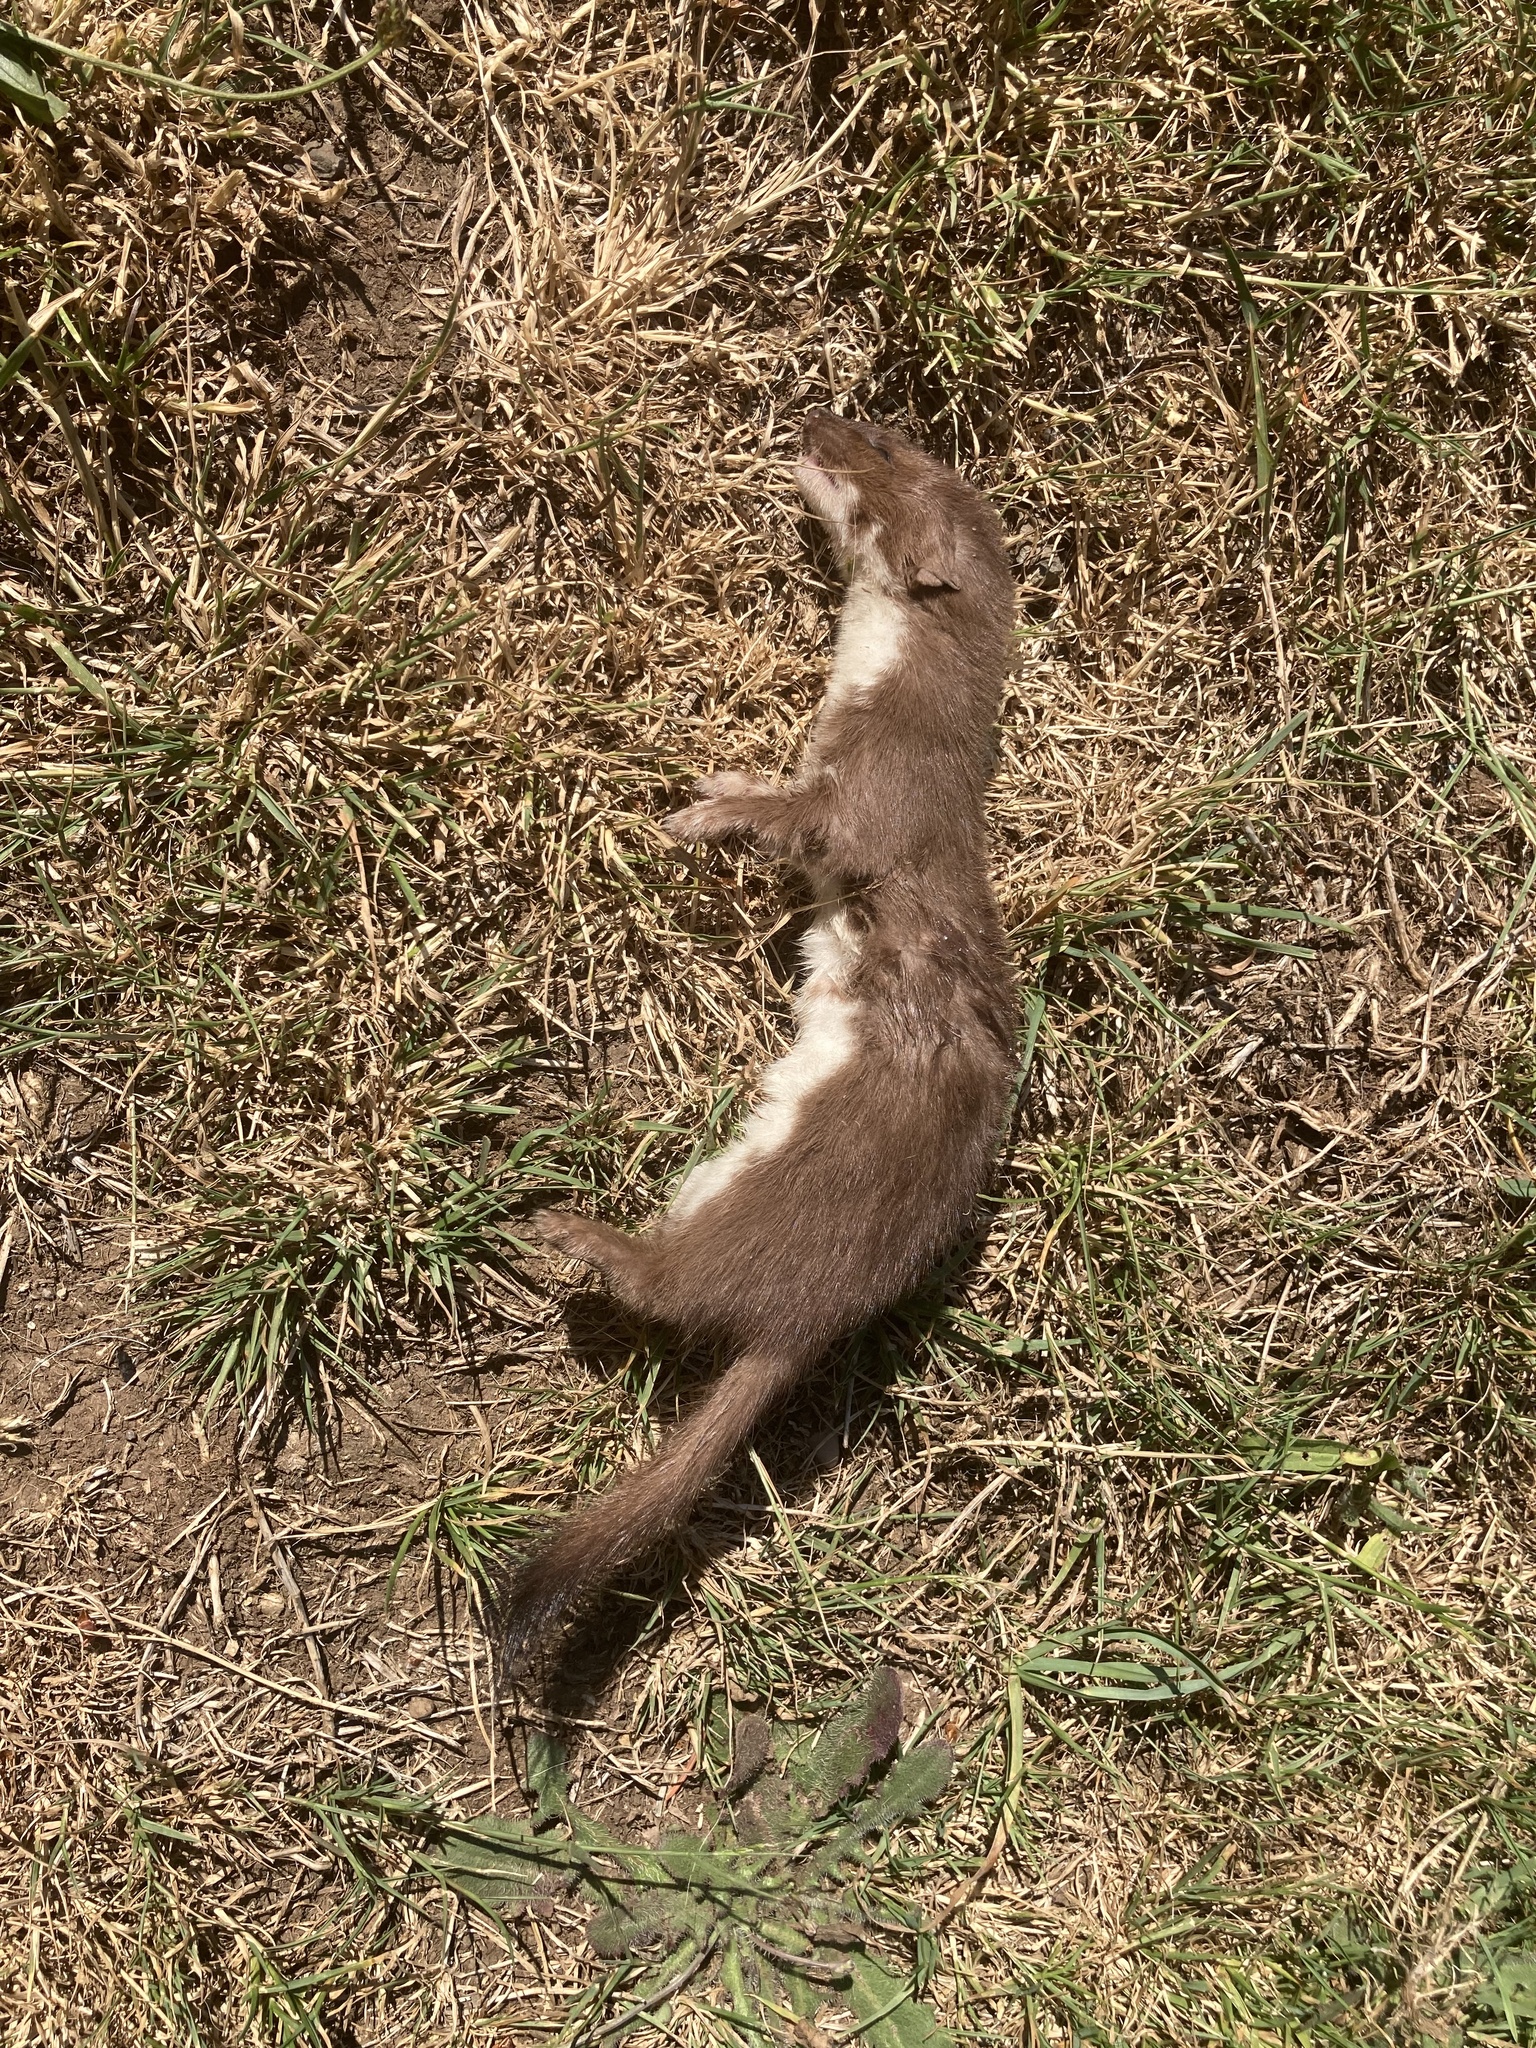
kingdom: Animalia
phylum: Chordata
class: Mammalia
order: Carnivora
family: Mustelidae
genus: Mustela
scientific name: Mustela erminea
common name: Stoat
